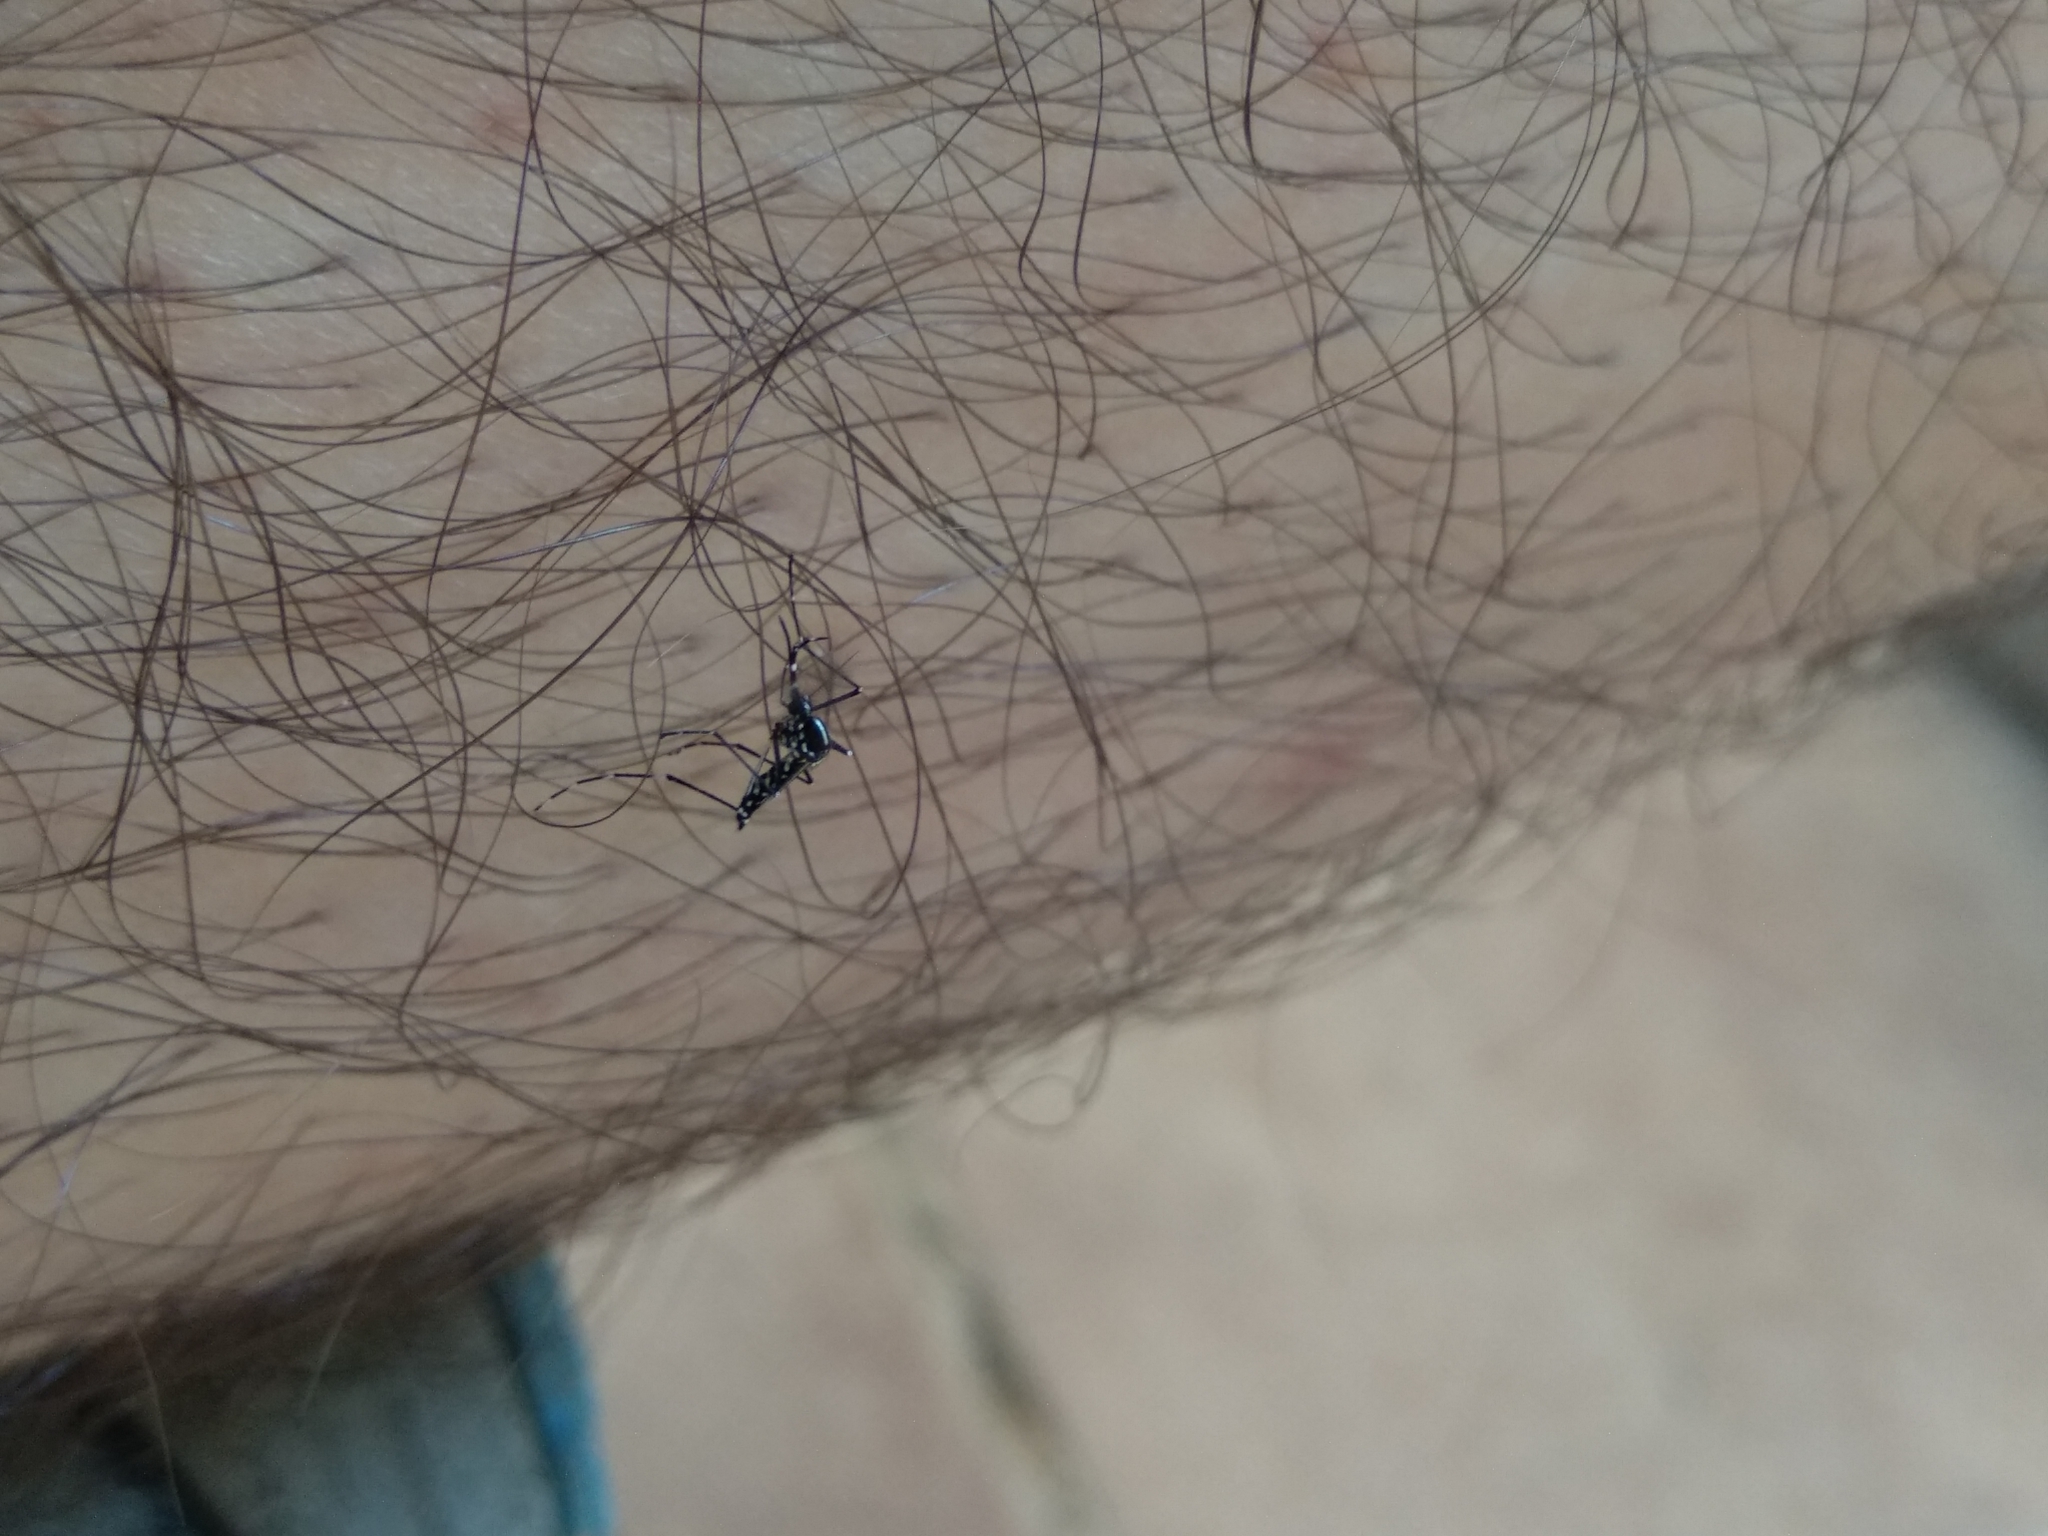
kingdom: Animalia
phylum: Arthropoda
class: Insecta
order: Diptera
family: Culicidae
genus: Aedes
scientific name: Aedes albopictus
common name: Tiger mosquito
